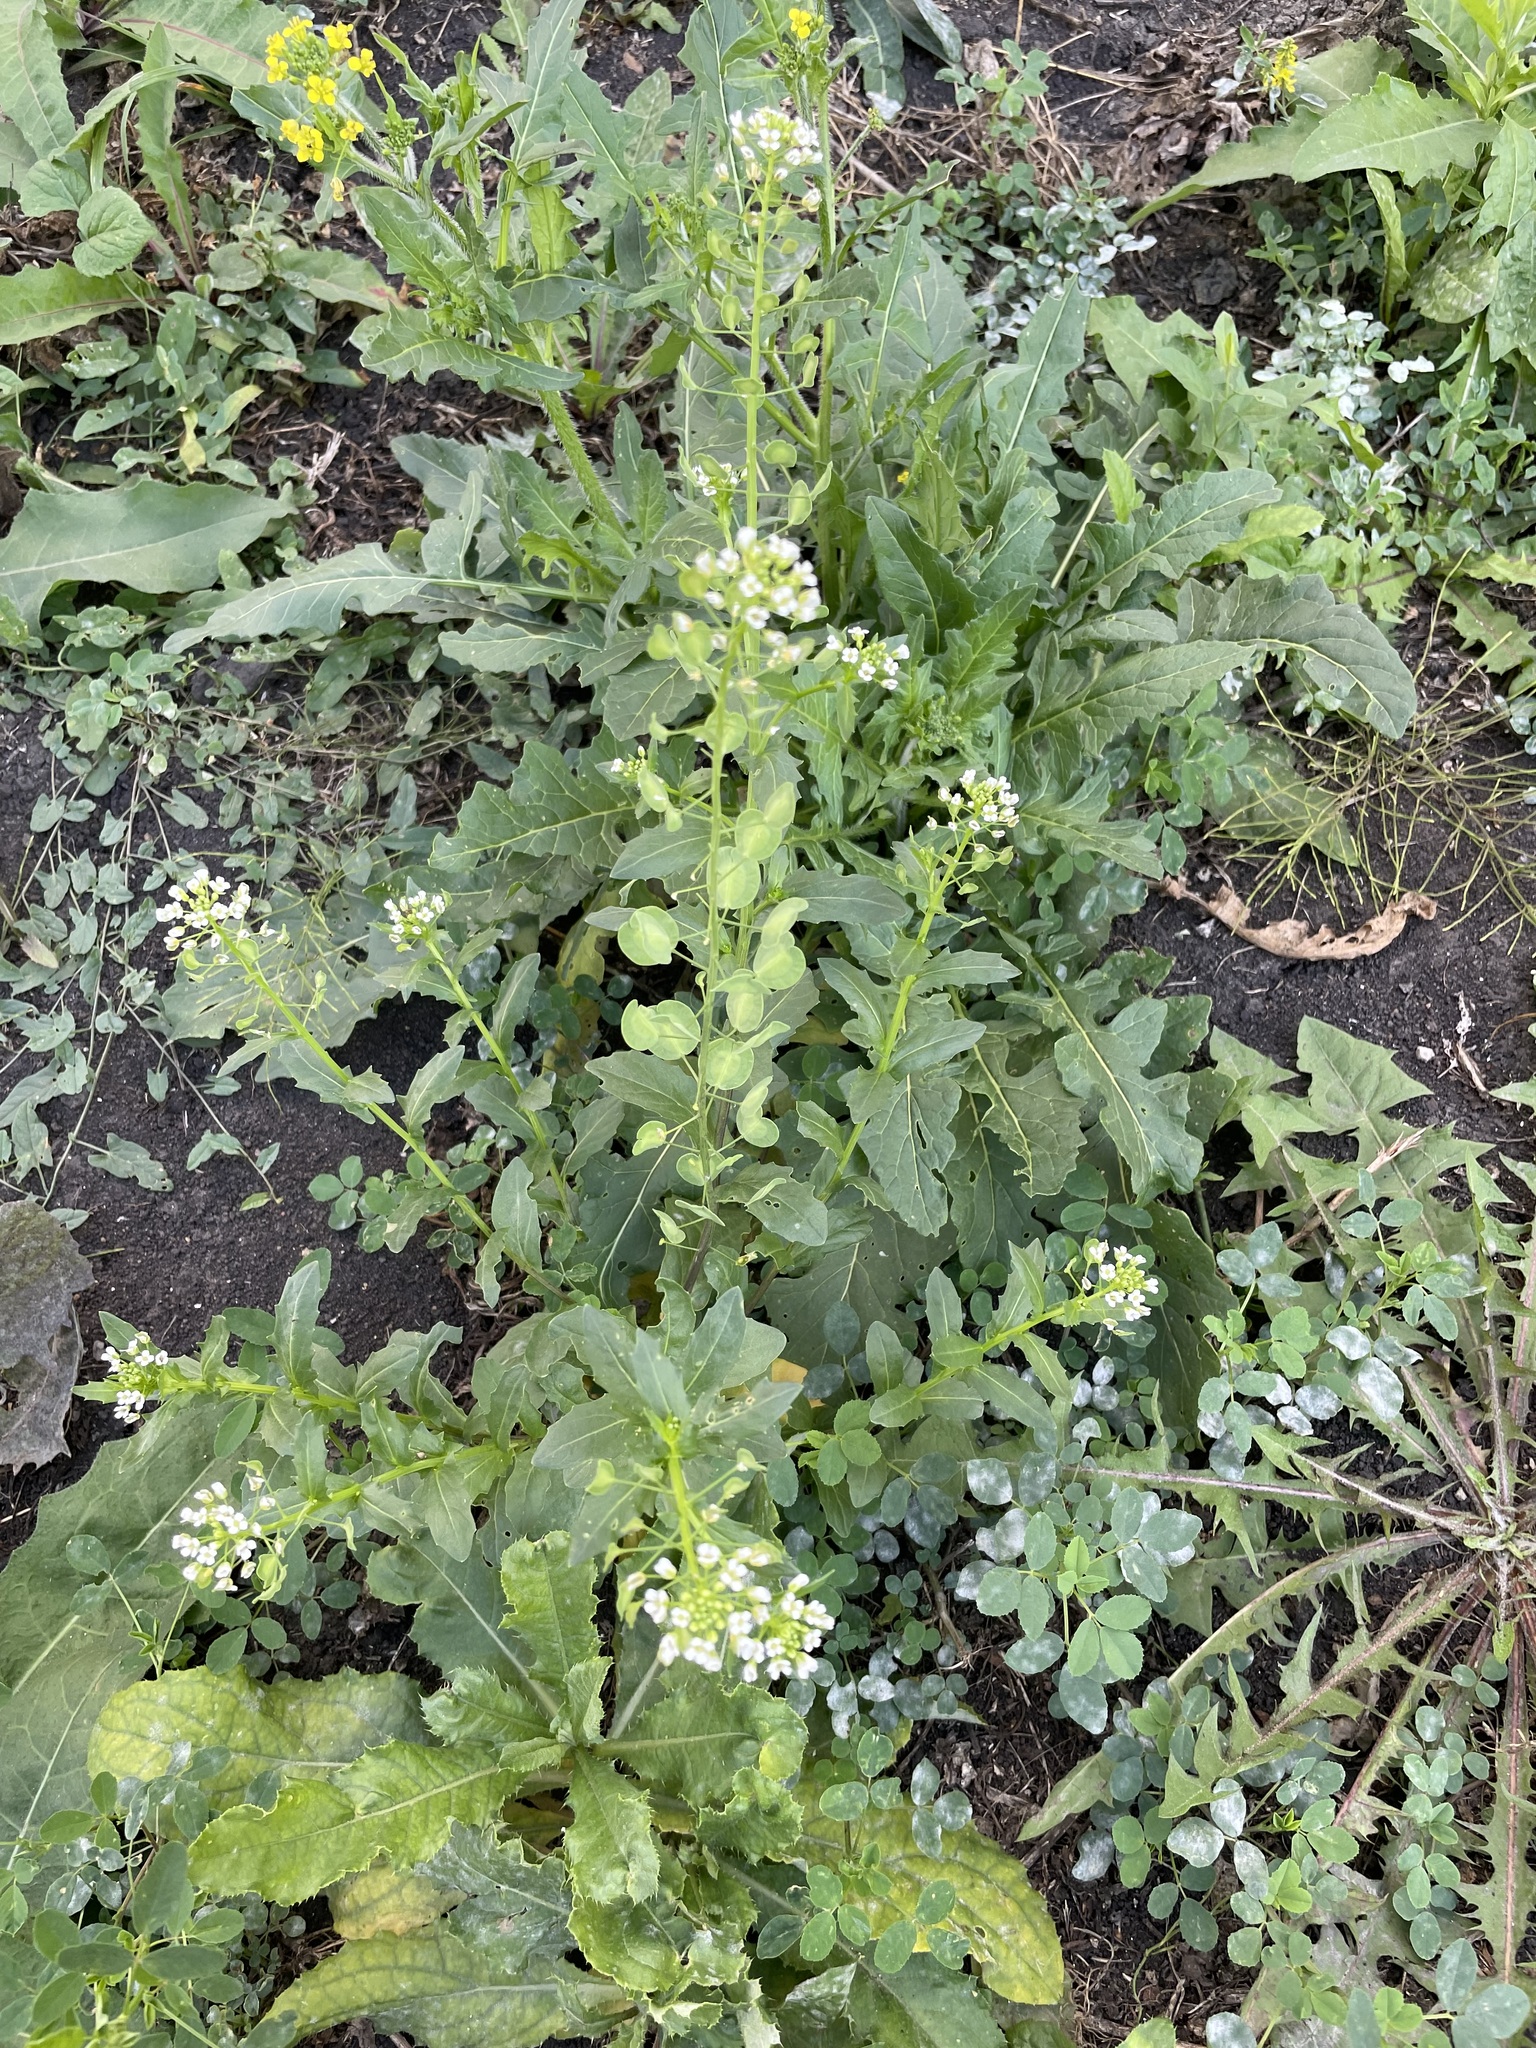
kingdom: Plantae
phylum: Tracheophyta
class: Magnoliopsida
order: Brassicales
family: Brassicaceae
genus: Thlaspi
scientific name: Thlaspi arvense
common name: Field pennycress
